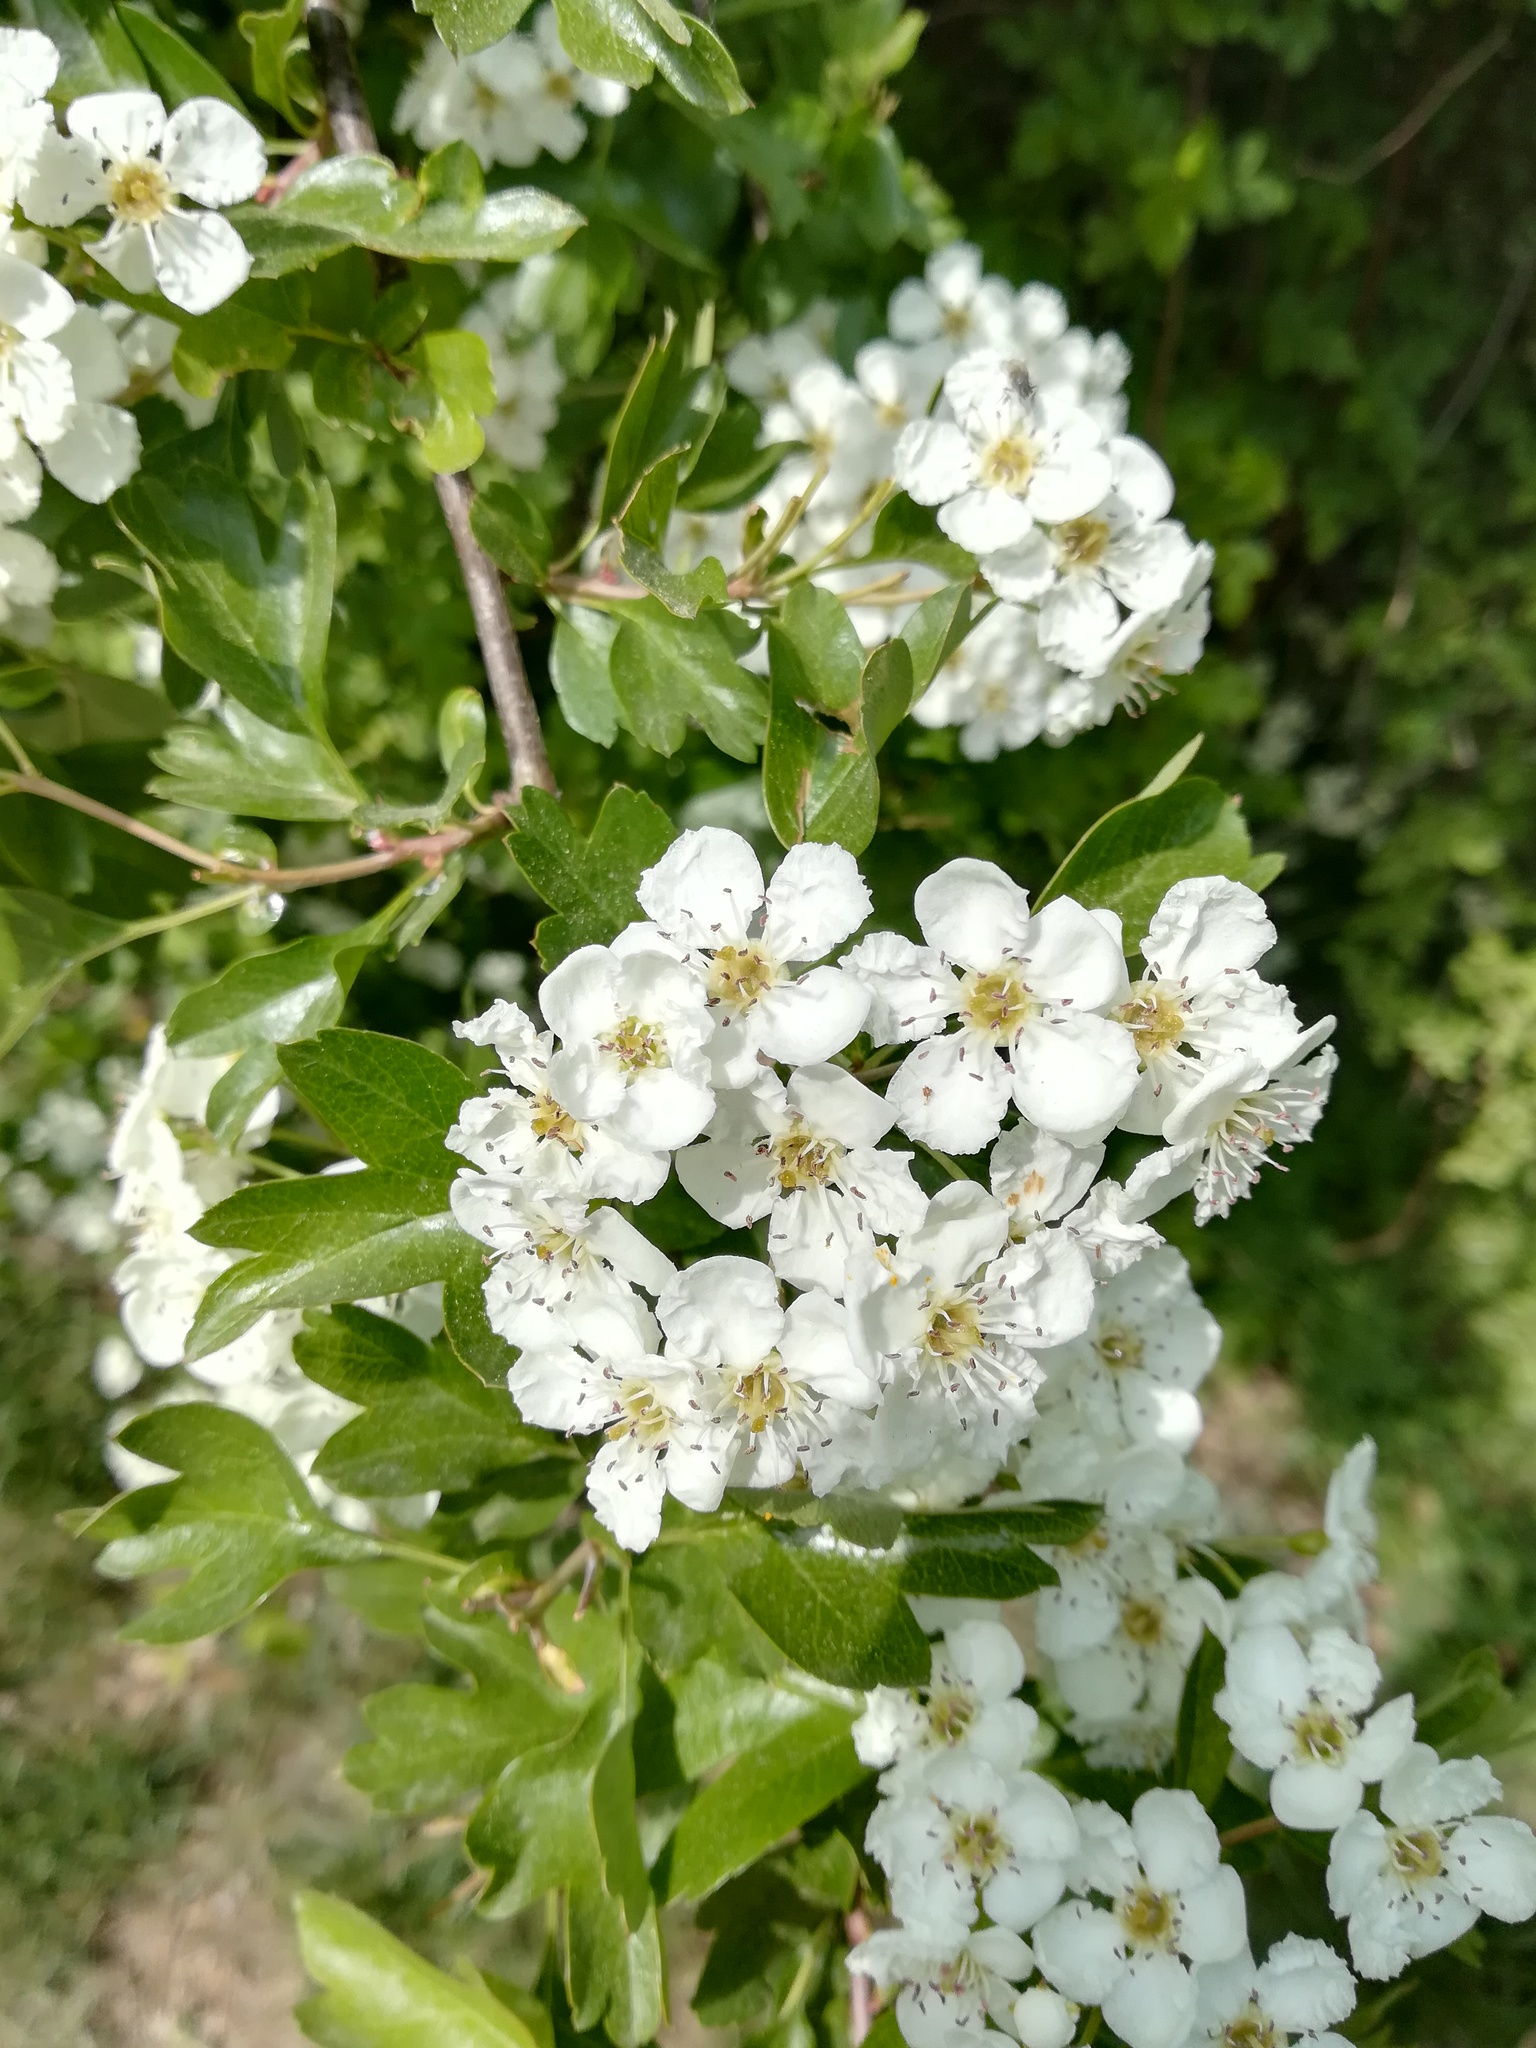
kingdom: Plantae
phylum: Tracheophyta
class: Magnoliopsida
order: Rosales
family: Rosaceae
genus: Crataegus
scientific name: Crataegus monogyna
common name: Hawthorn
